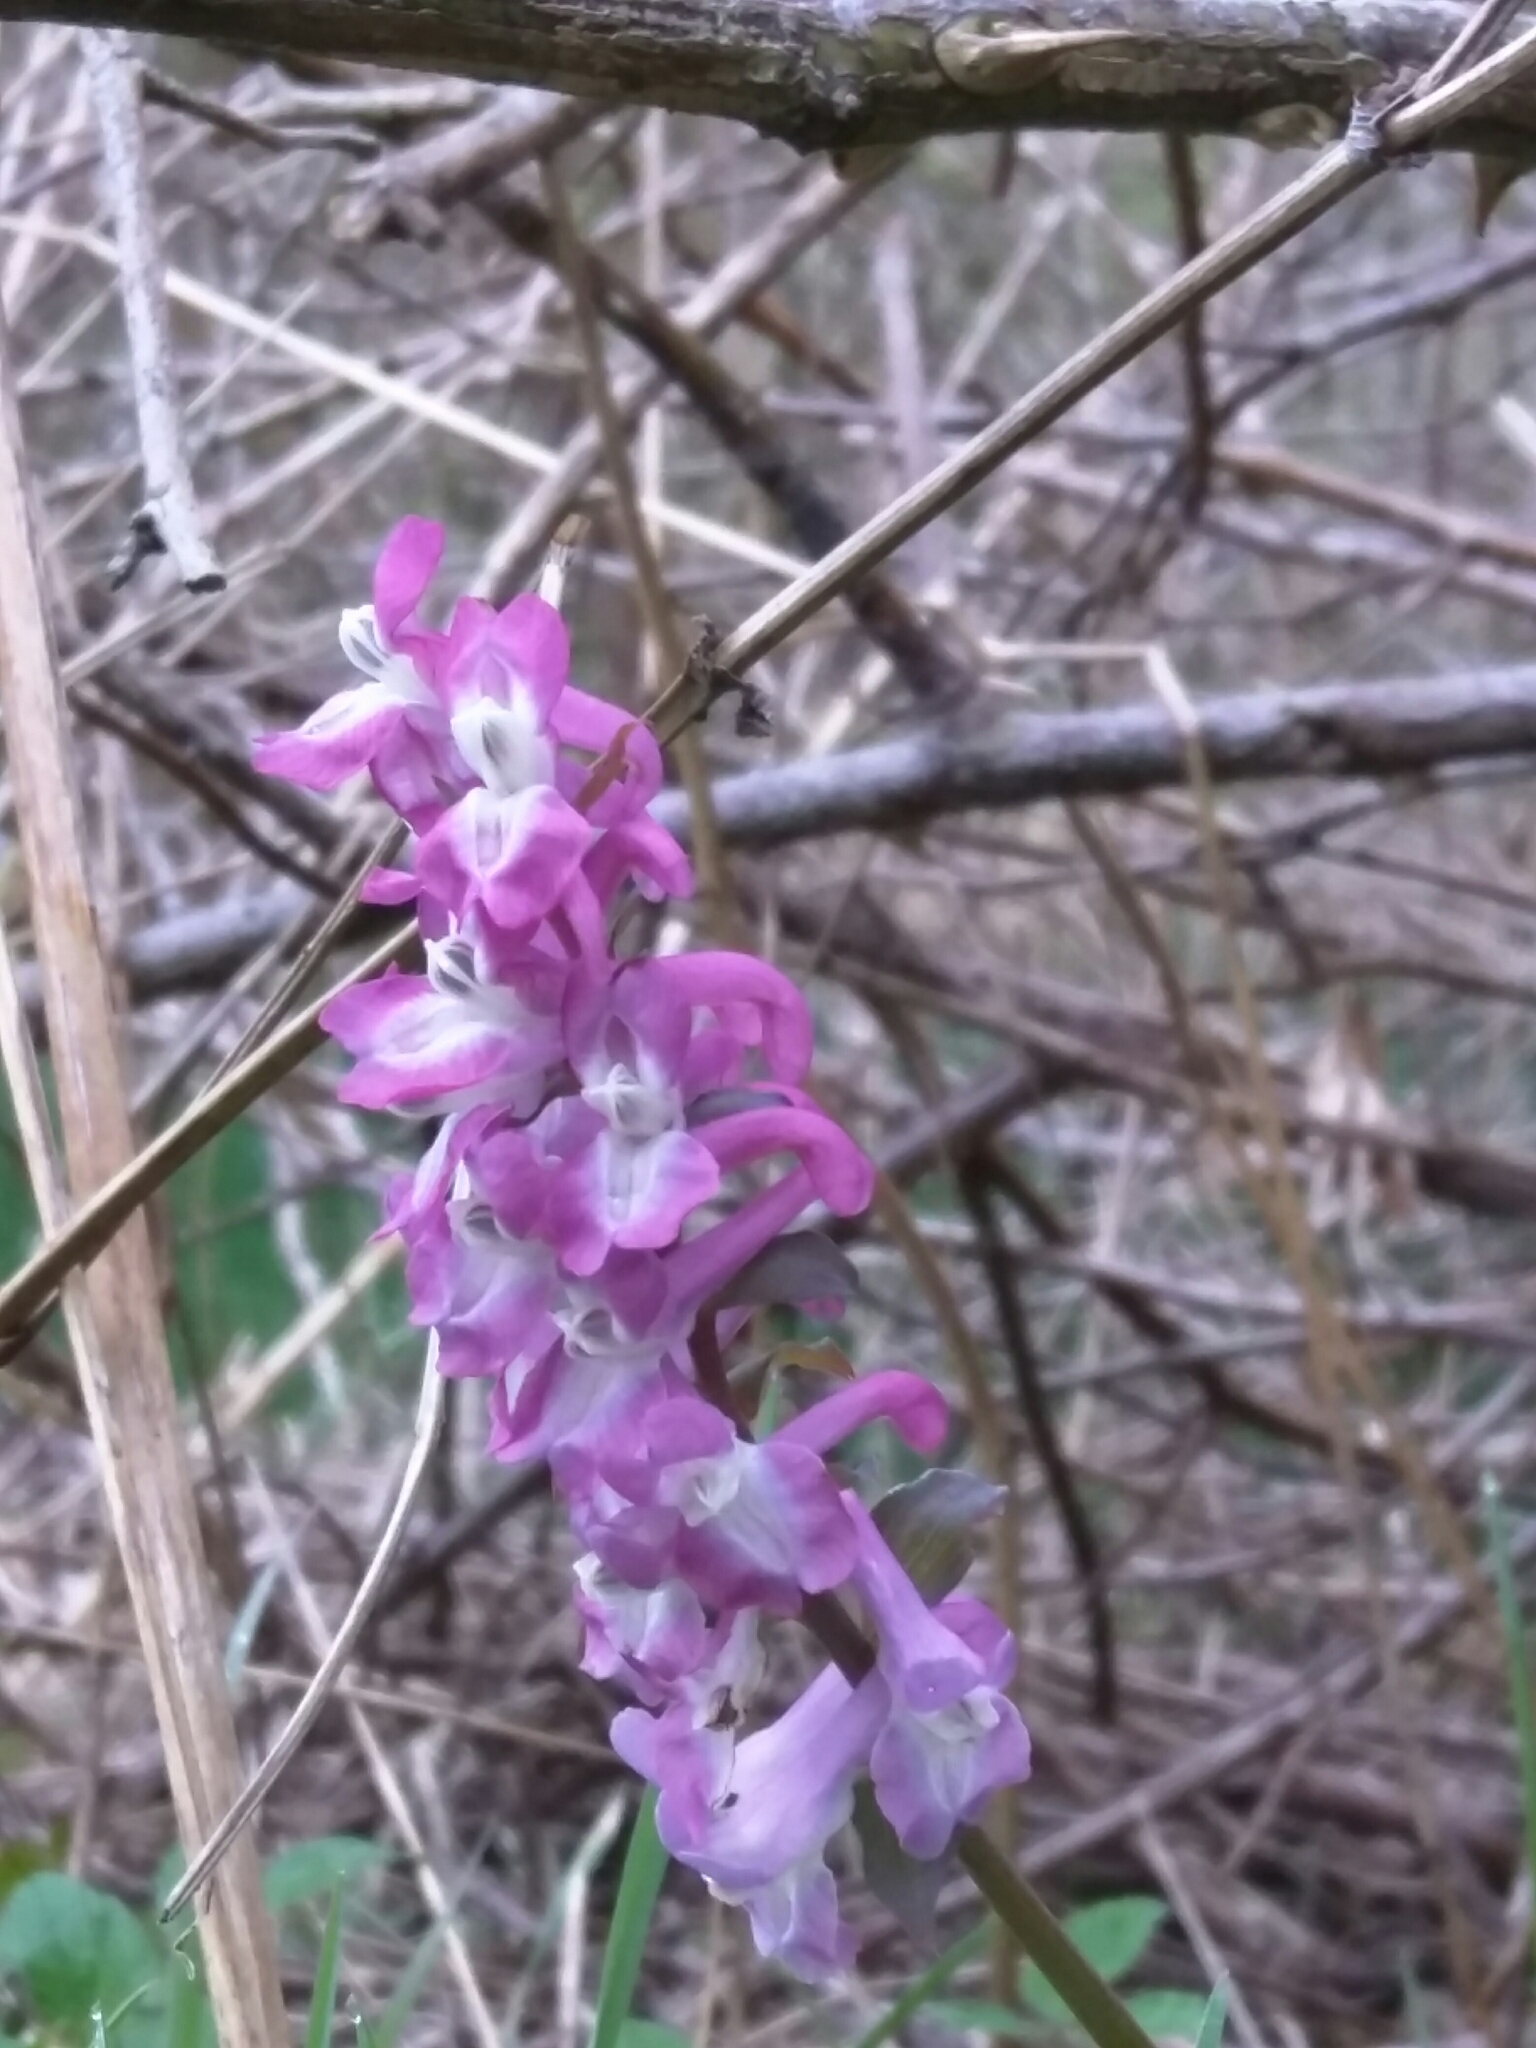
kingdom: Plantae
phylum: Tracheophyta
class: Magnoliopsida
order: Ranunculales
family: Papaveraceae
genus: Corydalis
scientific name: Corydalis cava
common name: Hollowroot
